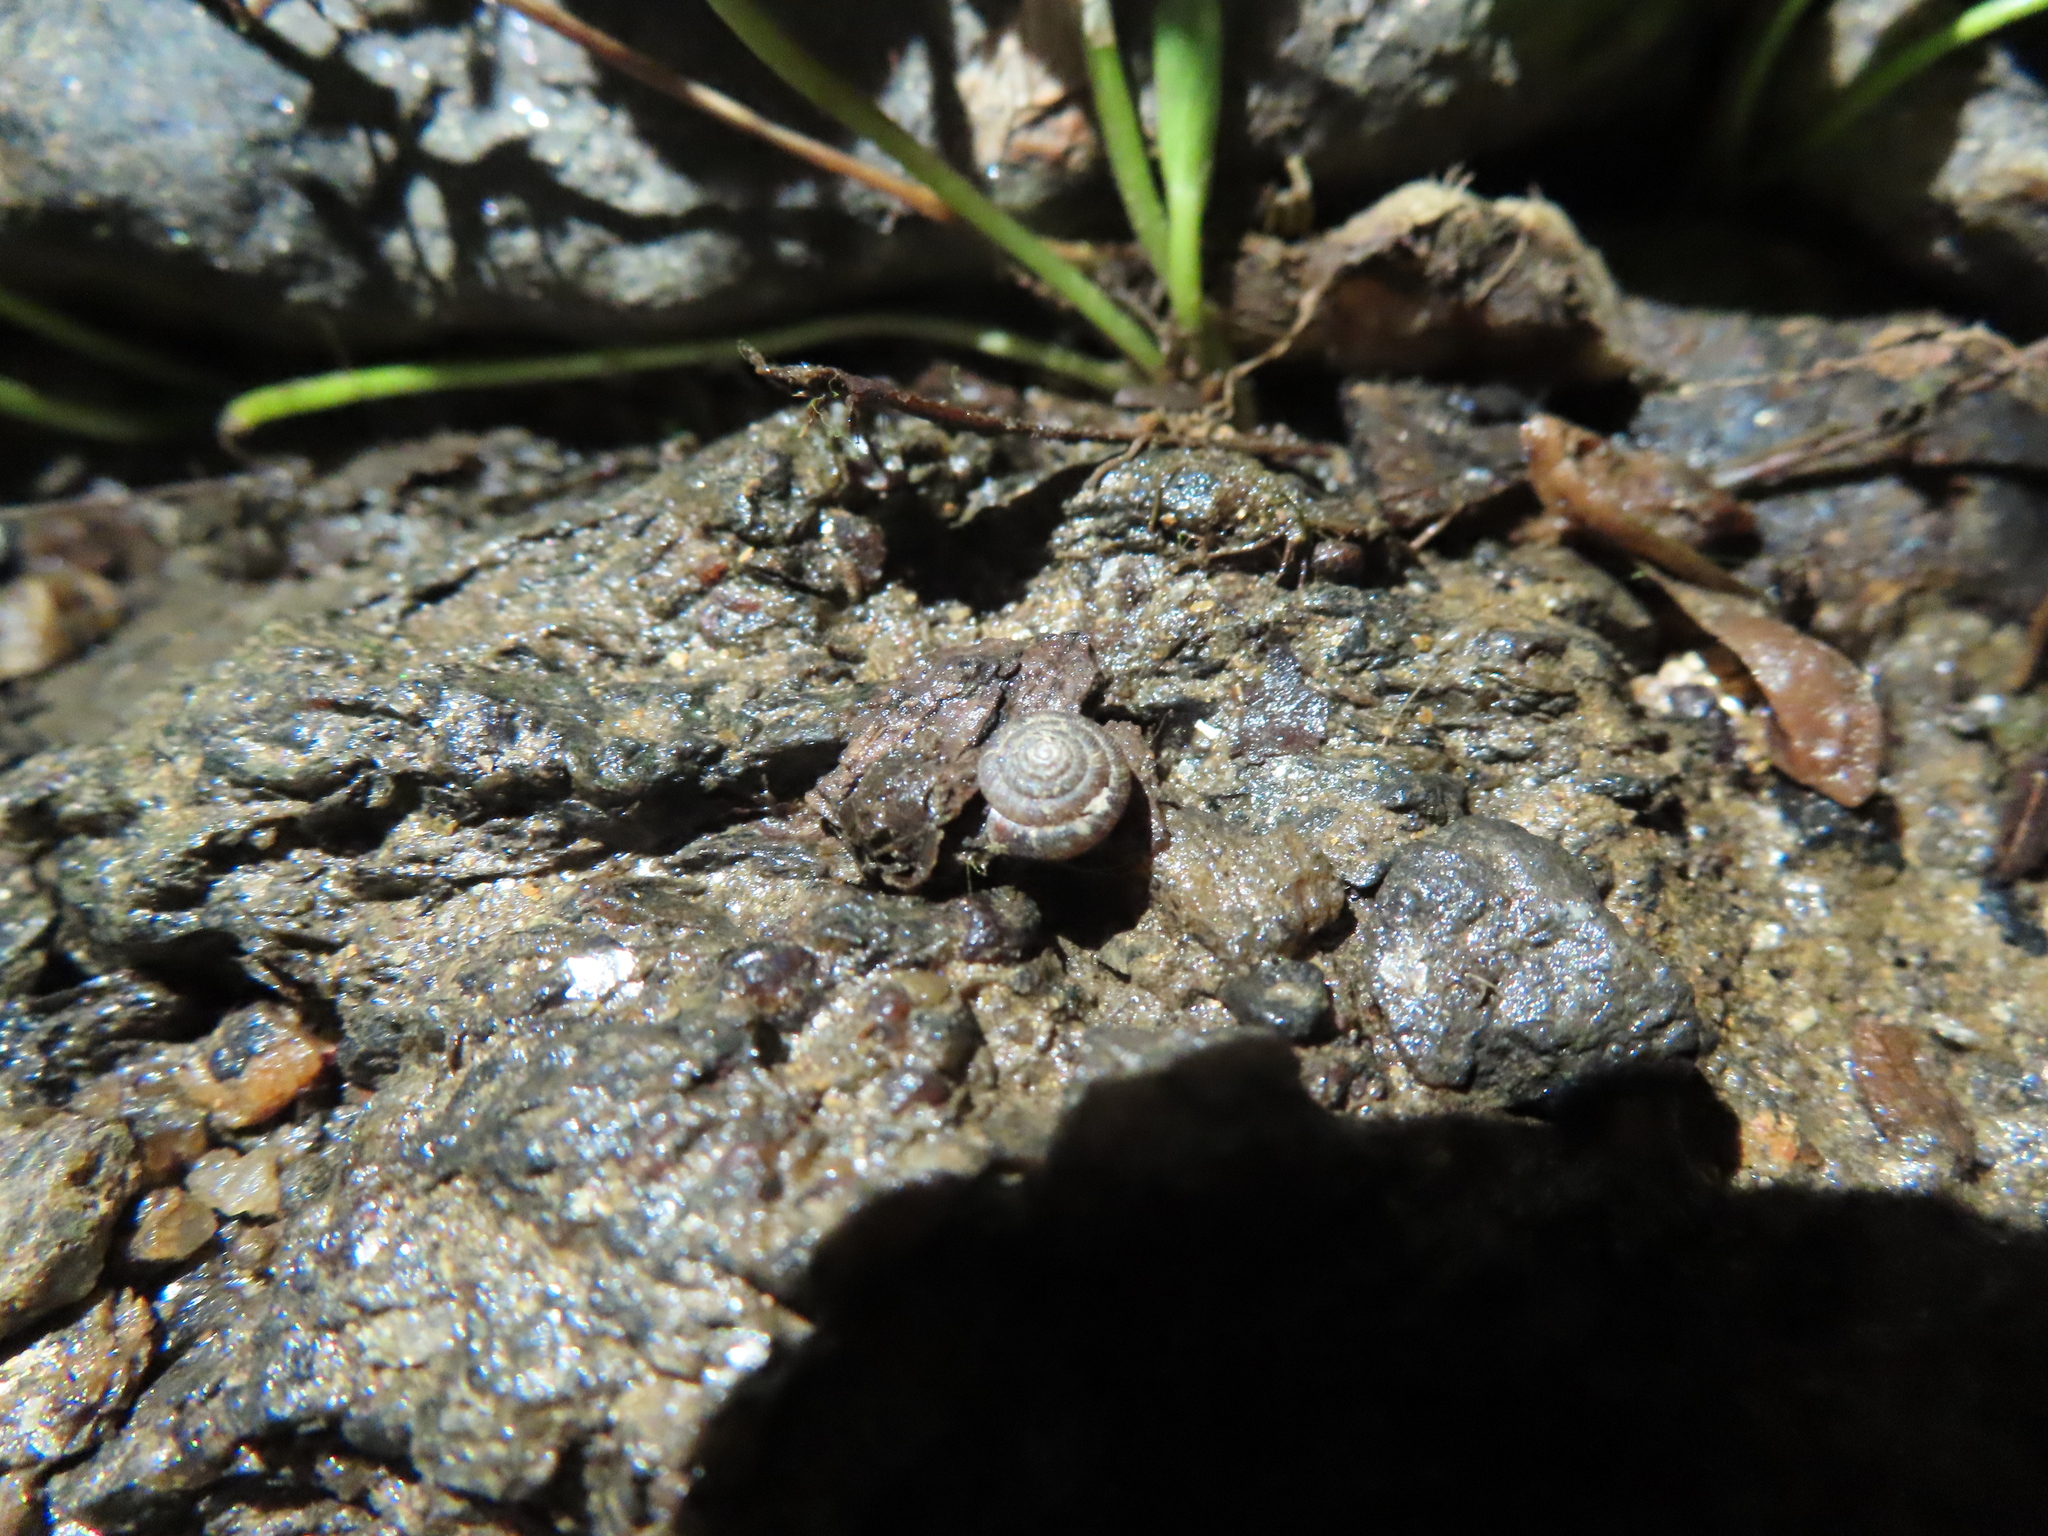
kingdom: Animalia
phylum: Mollusca
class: Gastropoda
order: Stylommatophora
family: Discidae
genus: Discus
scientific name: Discus rotundatus
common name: Rounded snail
